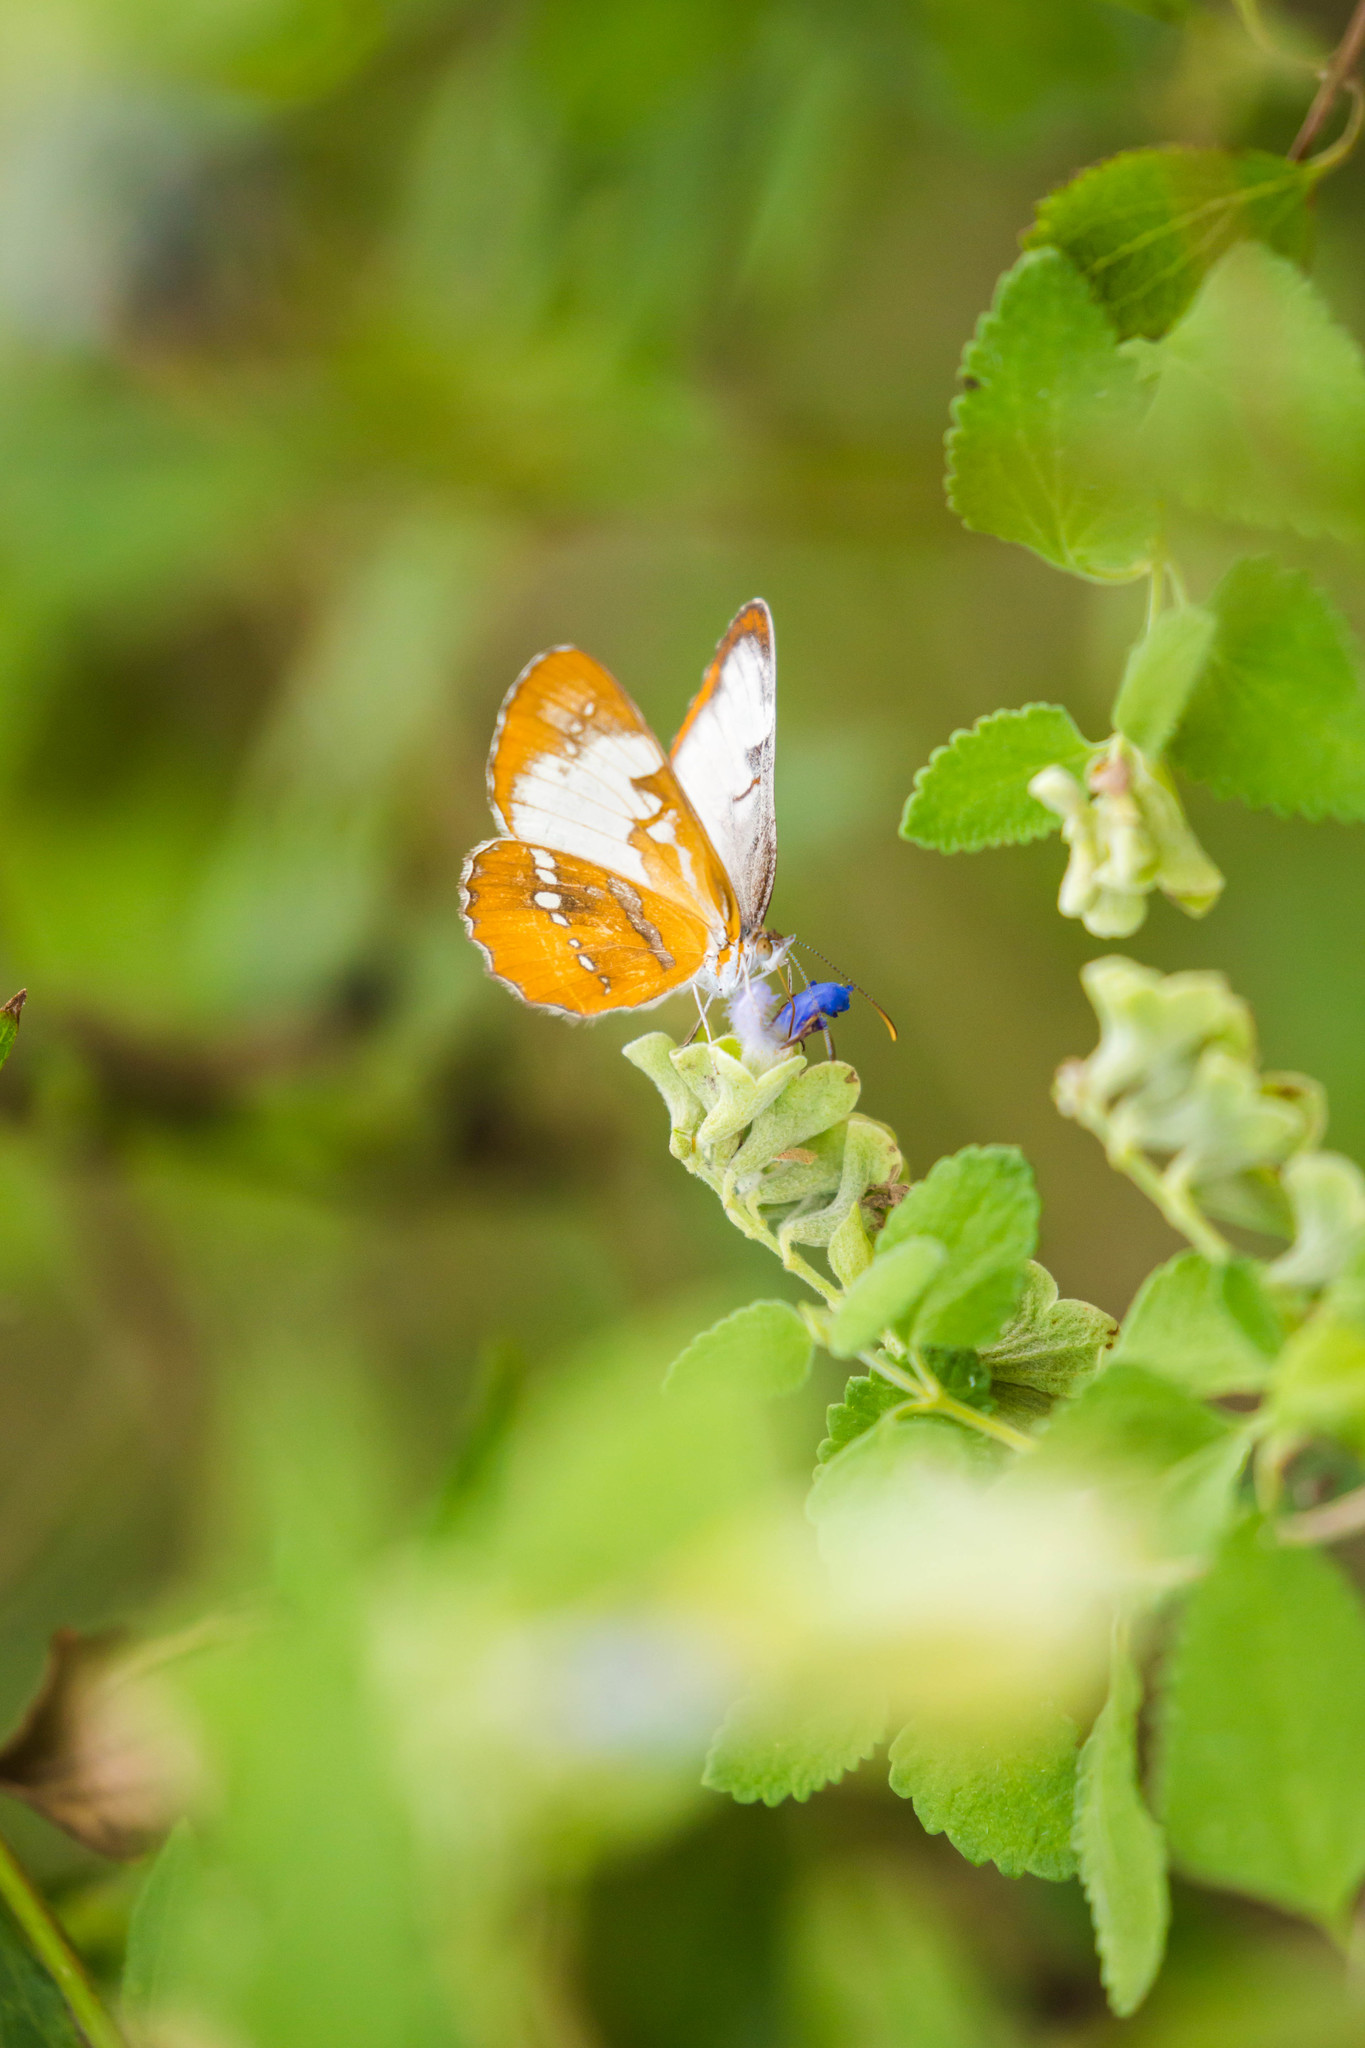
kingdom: Animalia
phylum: Arthropoda
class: Insecta
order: Lepidoptera
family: Nymphalidae
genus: Mestra
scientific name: Mestra amymone
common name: Common mestra
